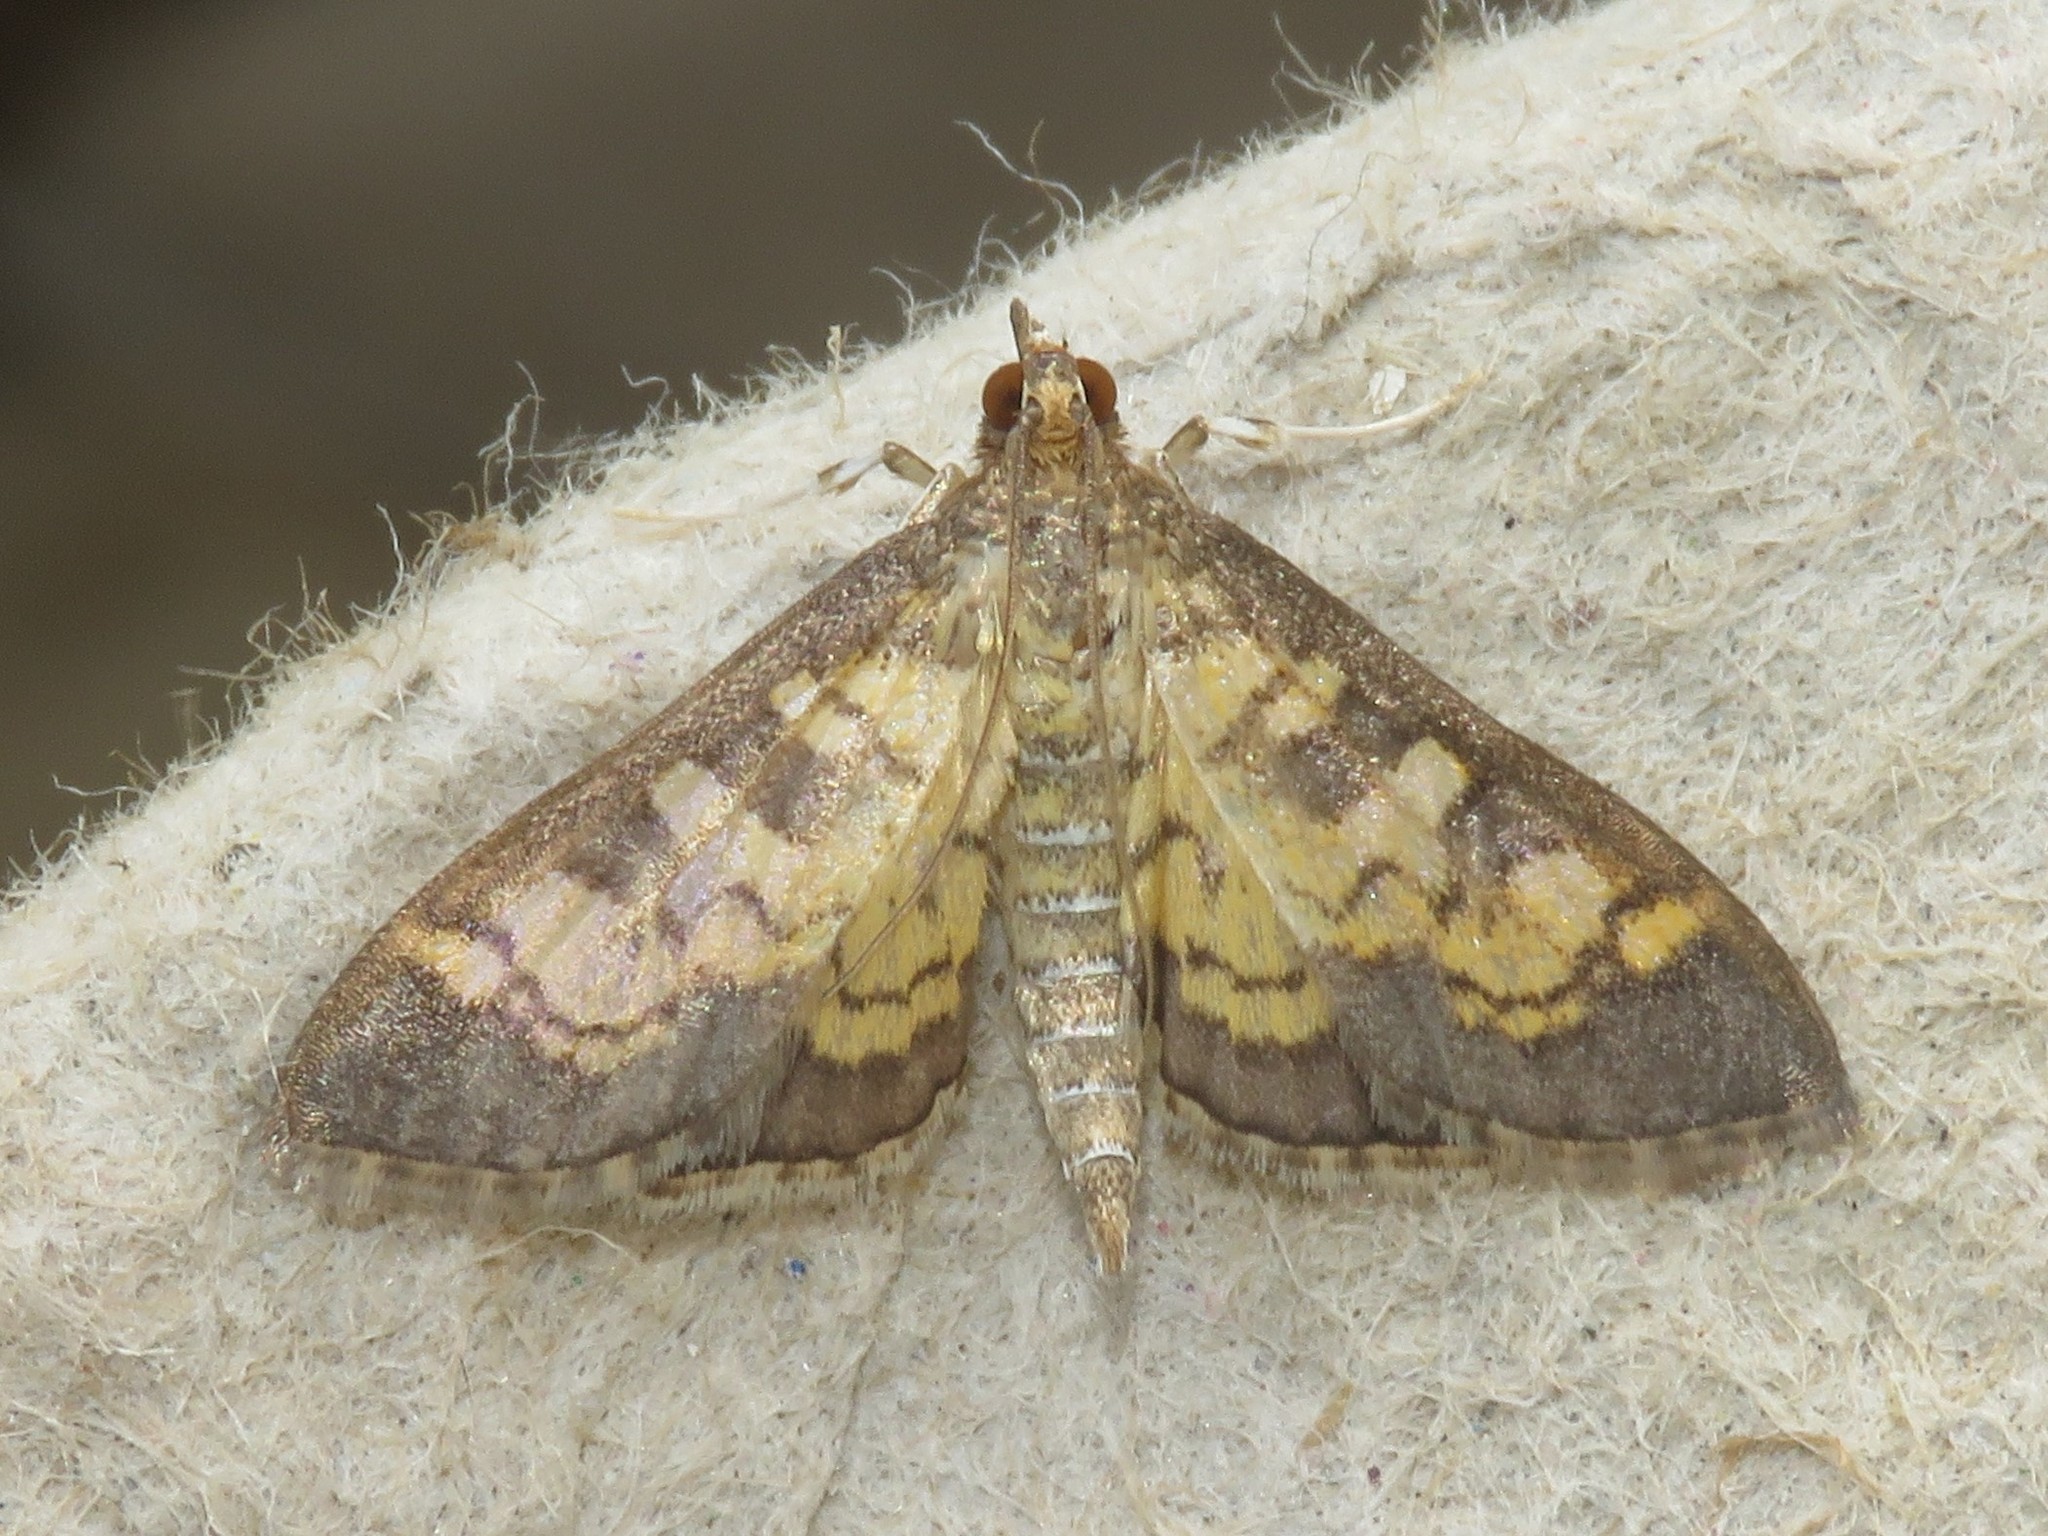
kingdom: Animalia
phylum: Arthropoda
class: Insecta
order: Lepidoptera
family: Crambidae
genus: Epipagis
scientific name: Epipagis adipaloides
